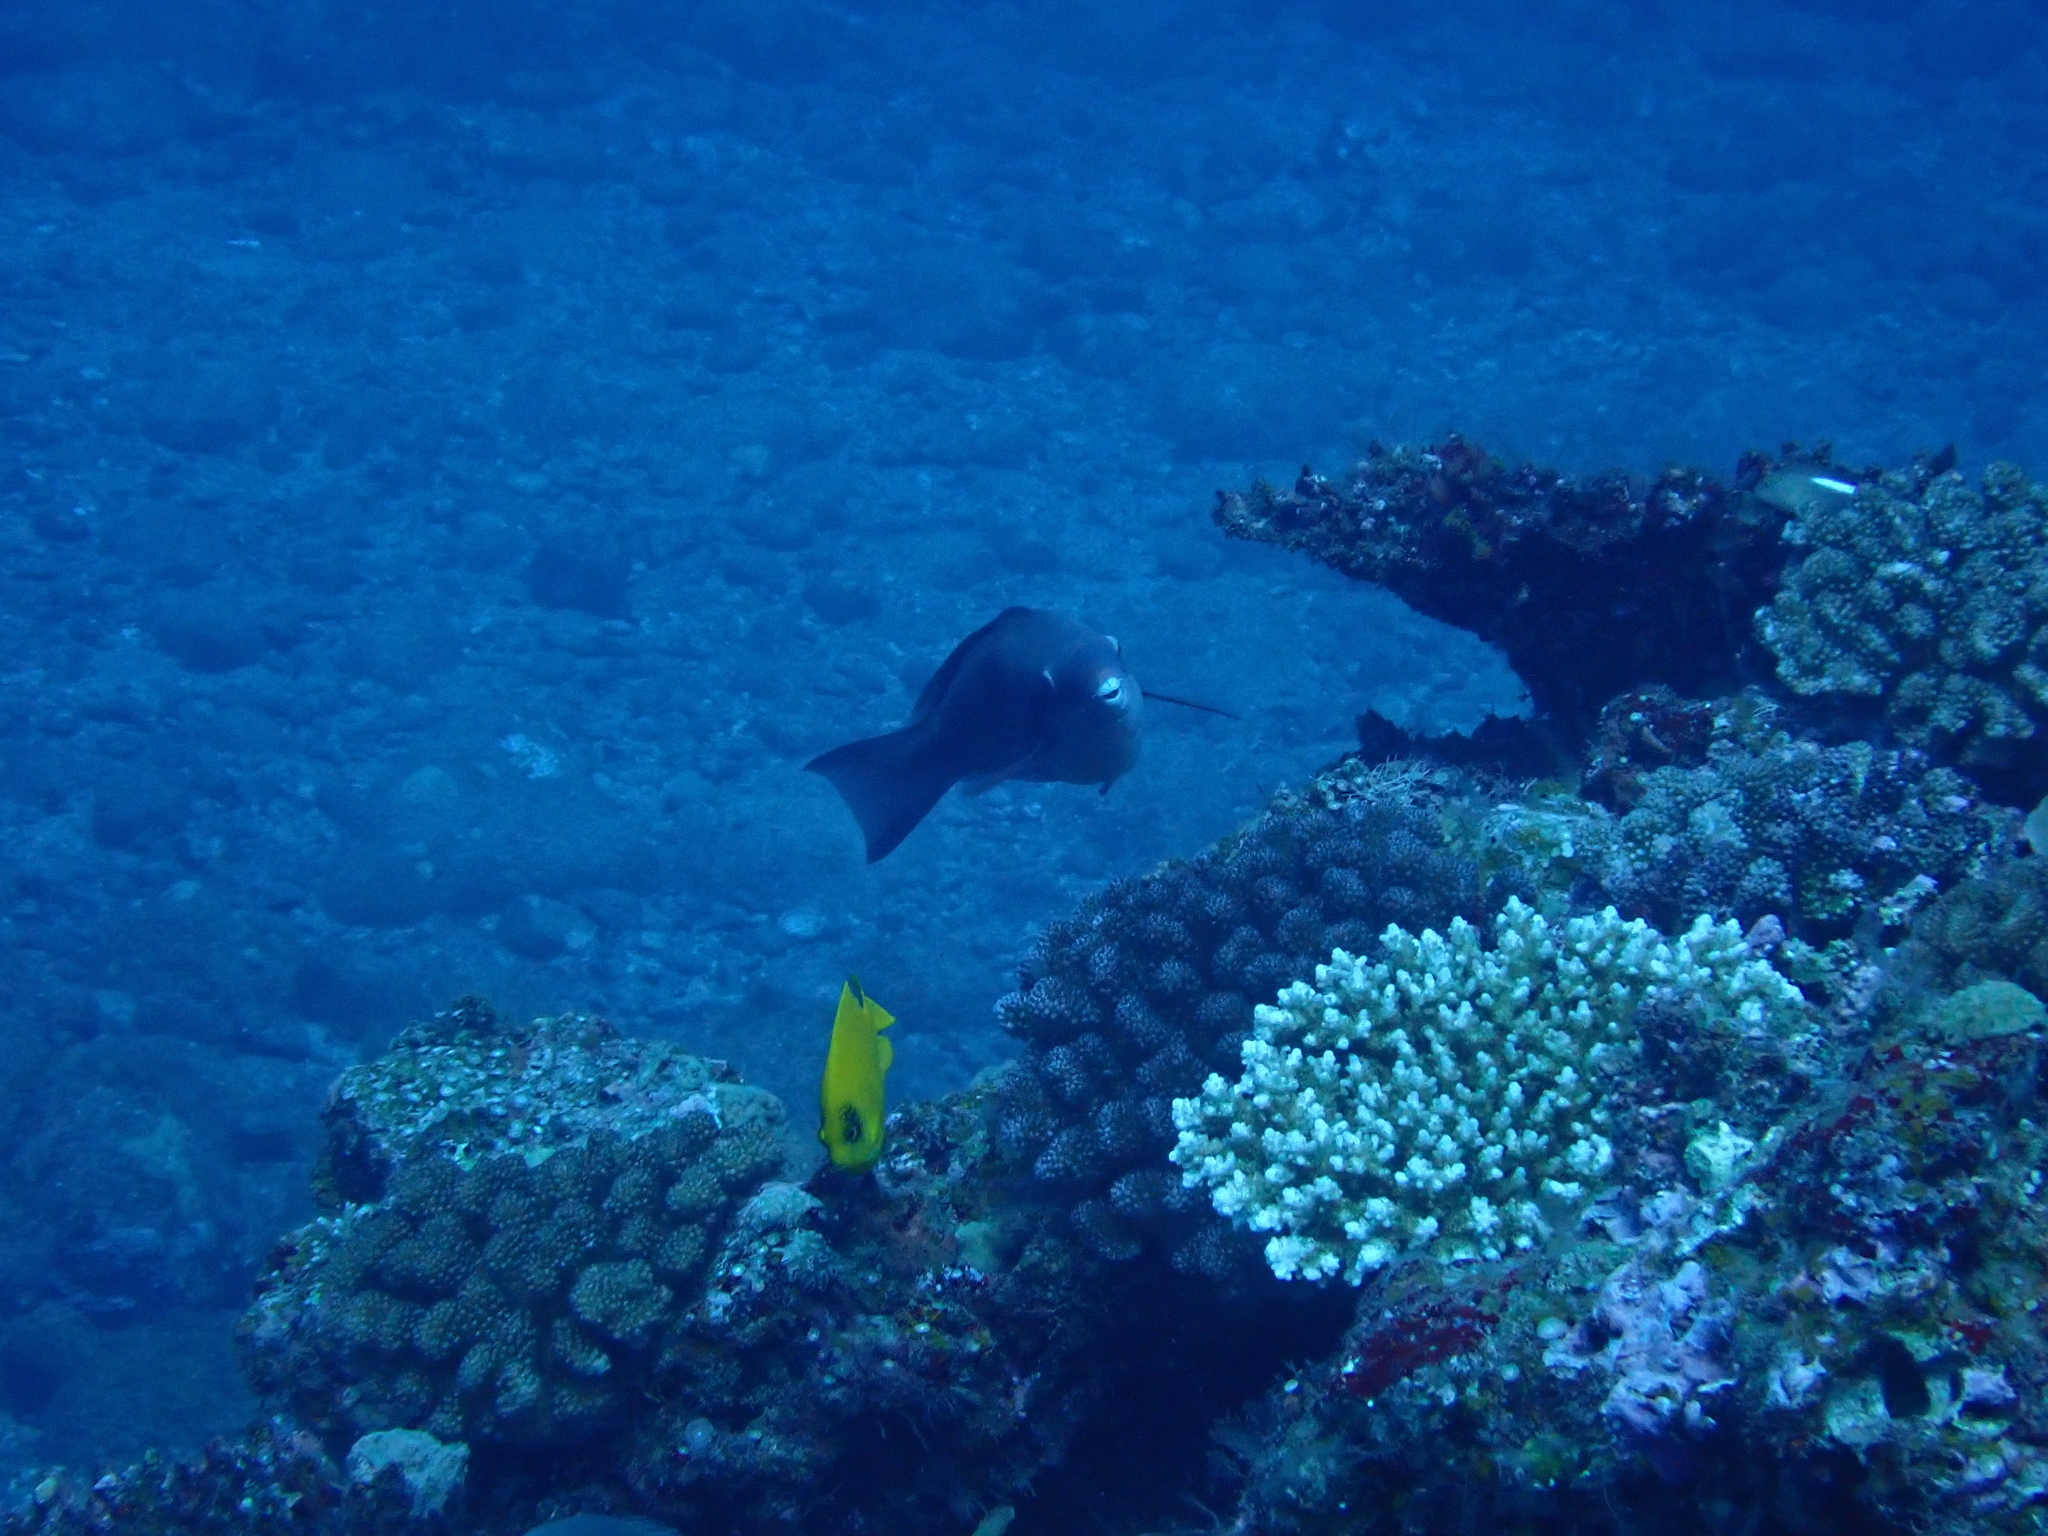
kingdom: Animalia
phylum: Chordata
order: Perciformes
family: Scaridae
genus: Scarus
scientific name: Scarus forsteni
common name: Forsten's parrotfish
